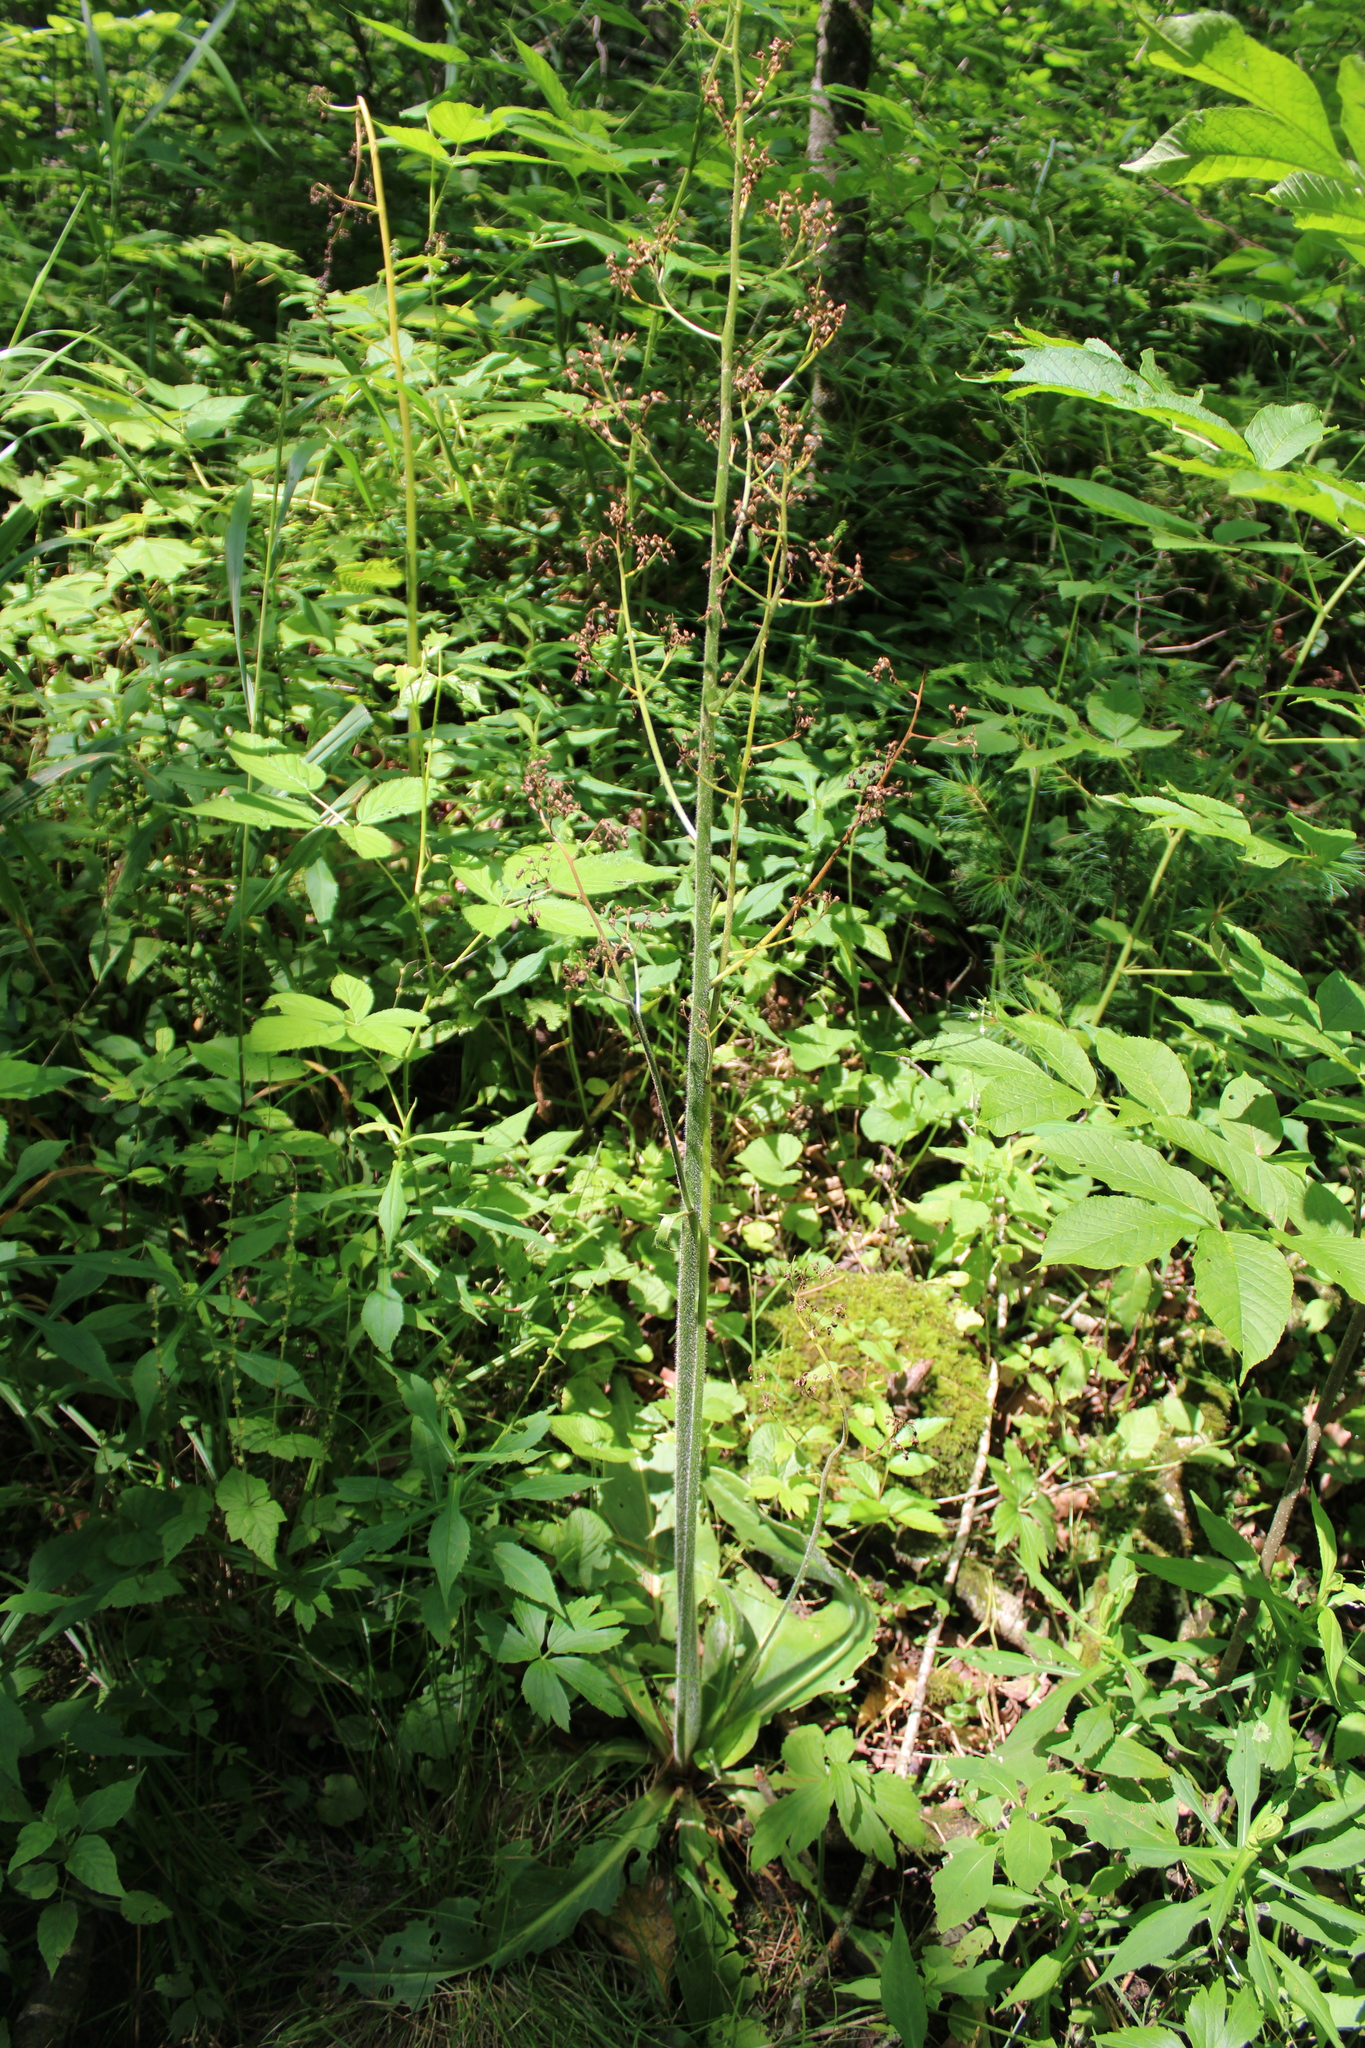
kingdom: Plantae
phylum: Tracheophyta
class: Magnoliopsida
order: Saxifragales
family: Saxifragaceae
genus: Micranthes
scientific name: Micranthes pensylvanica
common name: Marsh saxifrage
